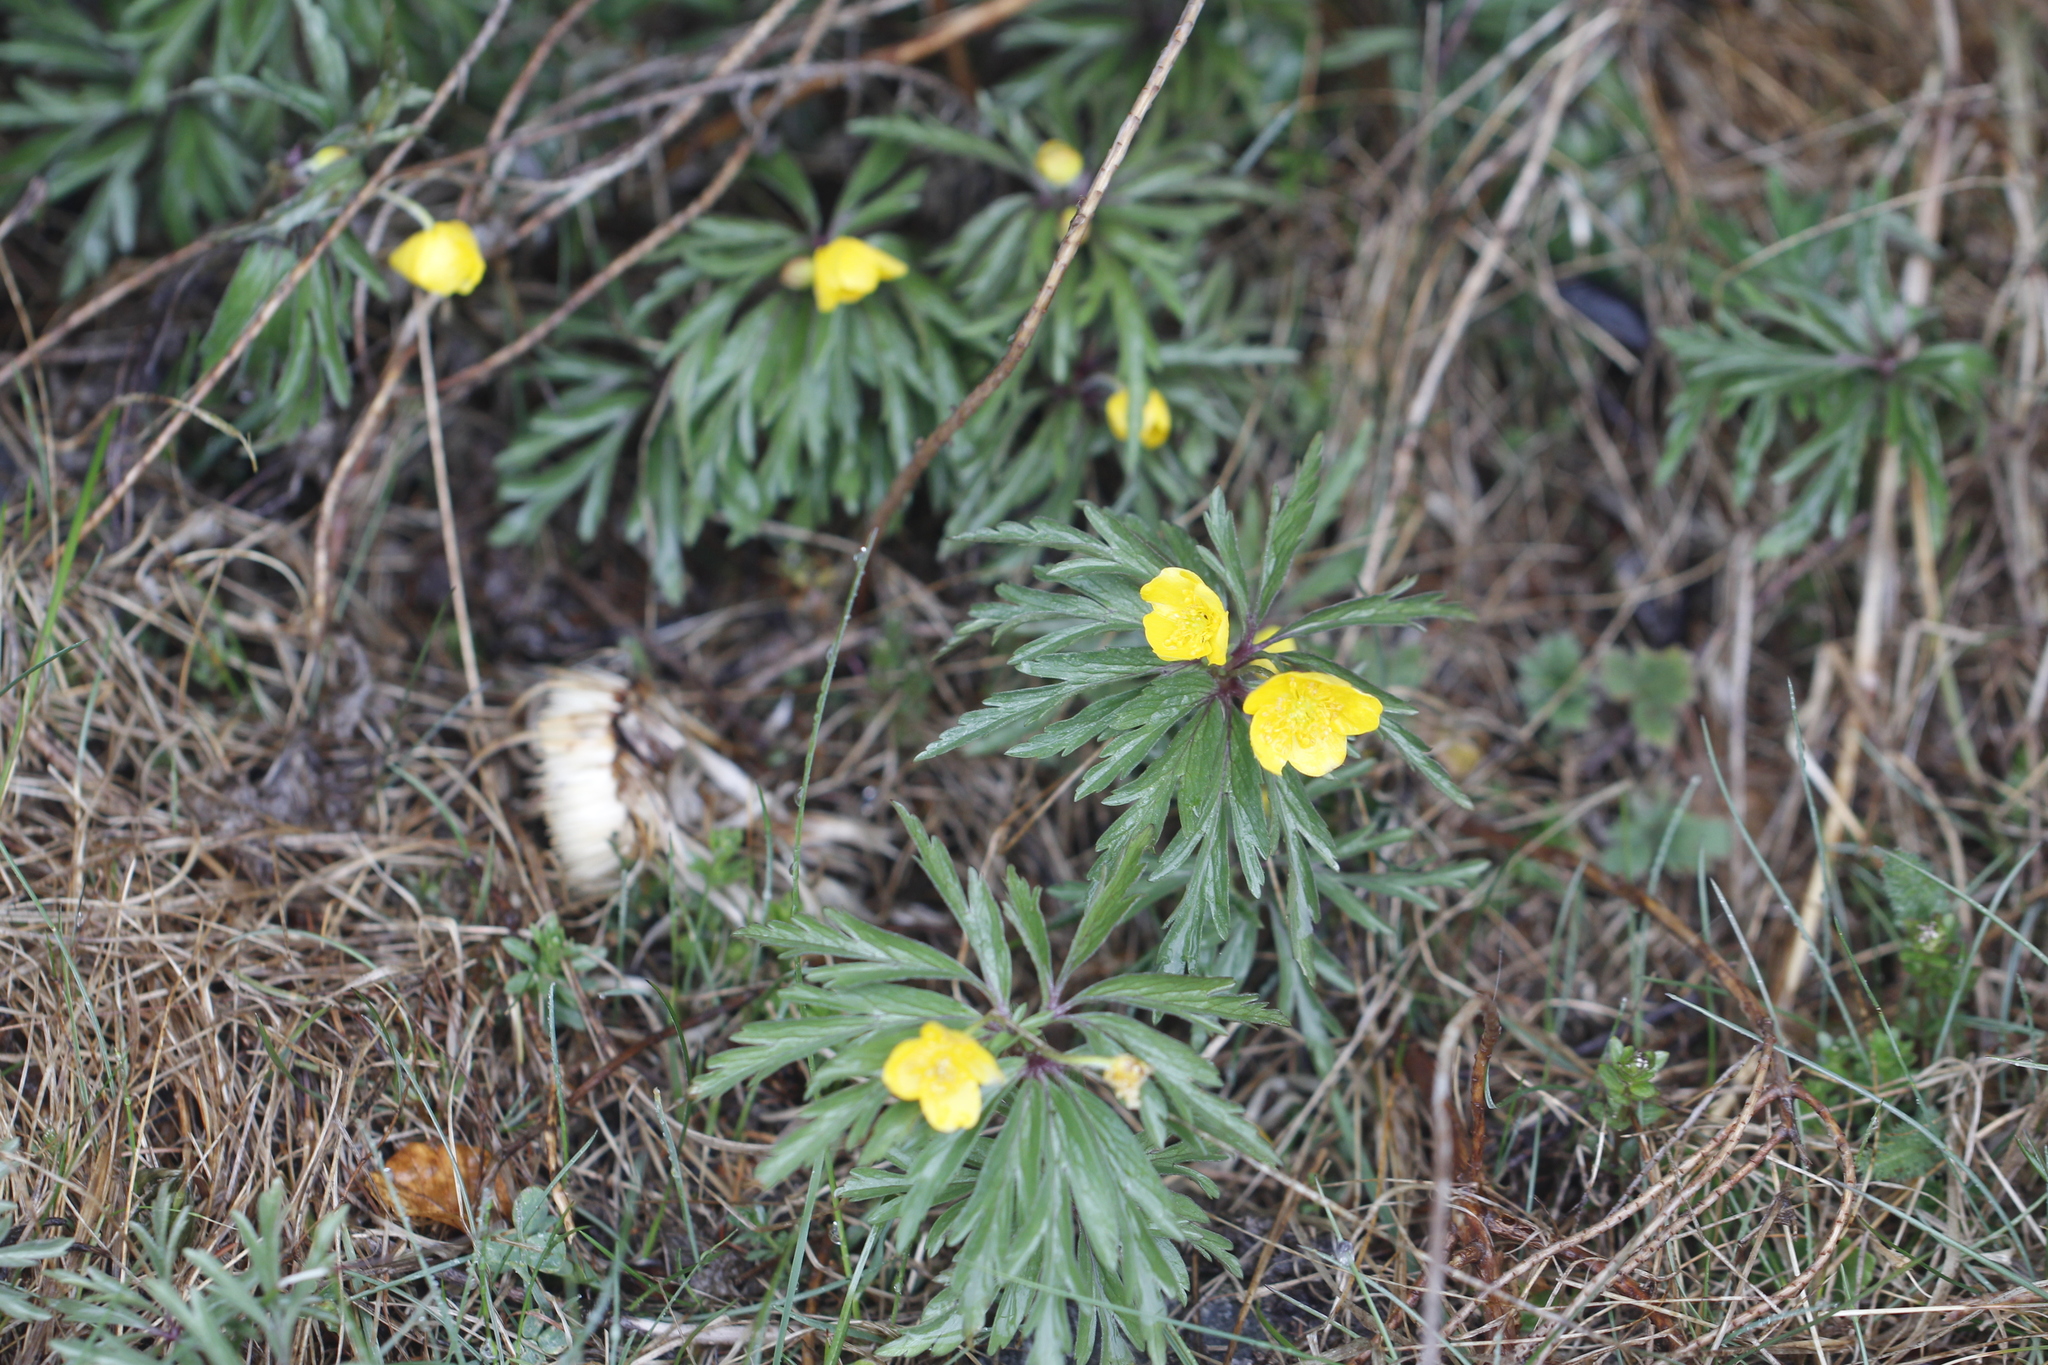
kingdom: Plantae
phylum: Tracheophyta
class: Magnoliopsida
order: Ranunculales
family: Ranunculaceae
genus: Anemone
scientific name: Anemone ranunculoides
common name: Yellow anemone
